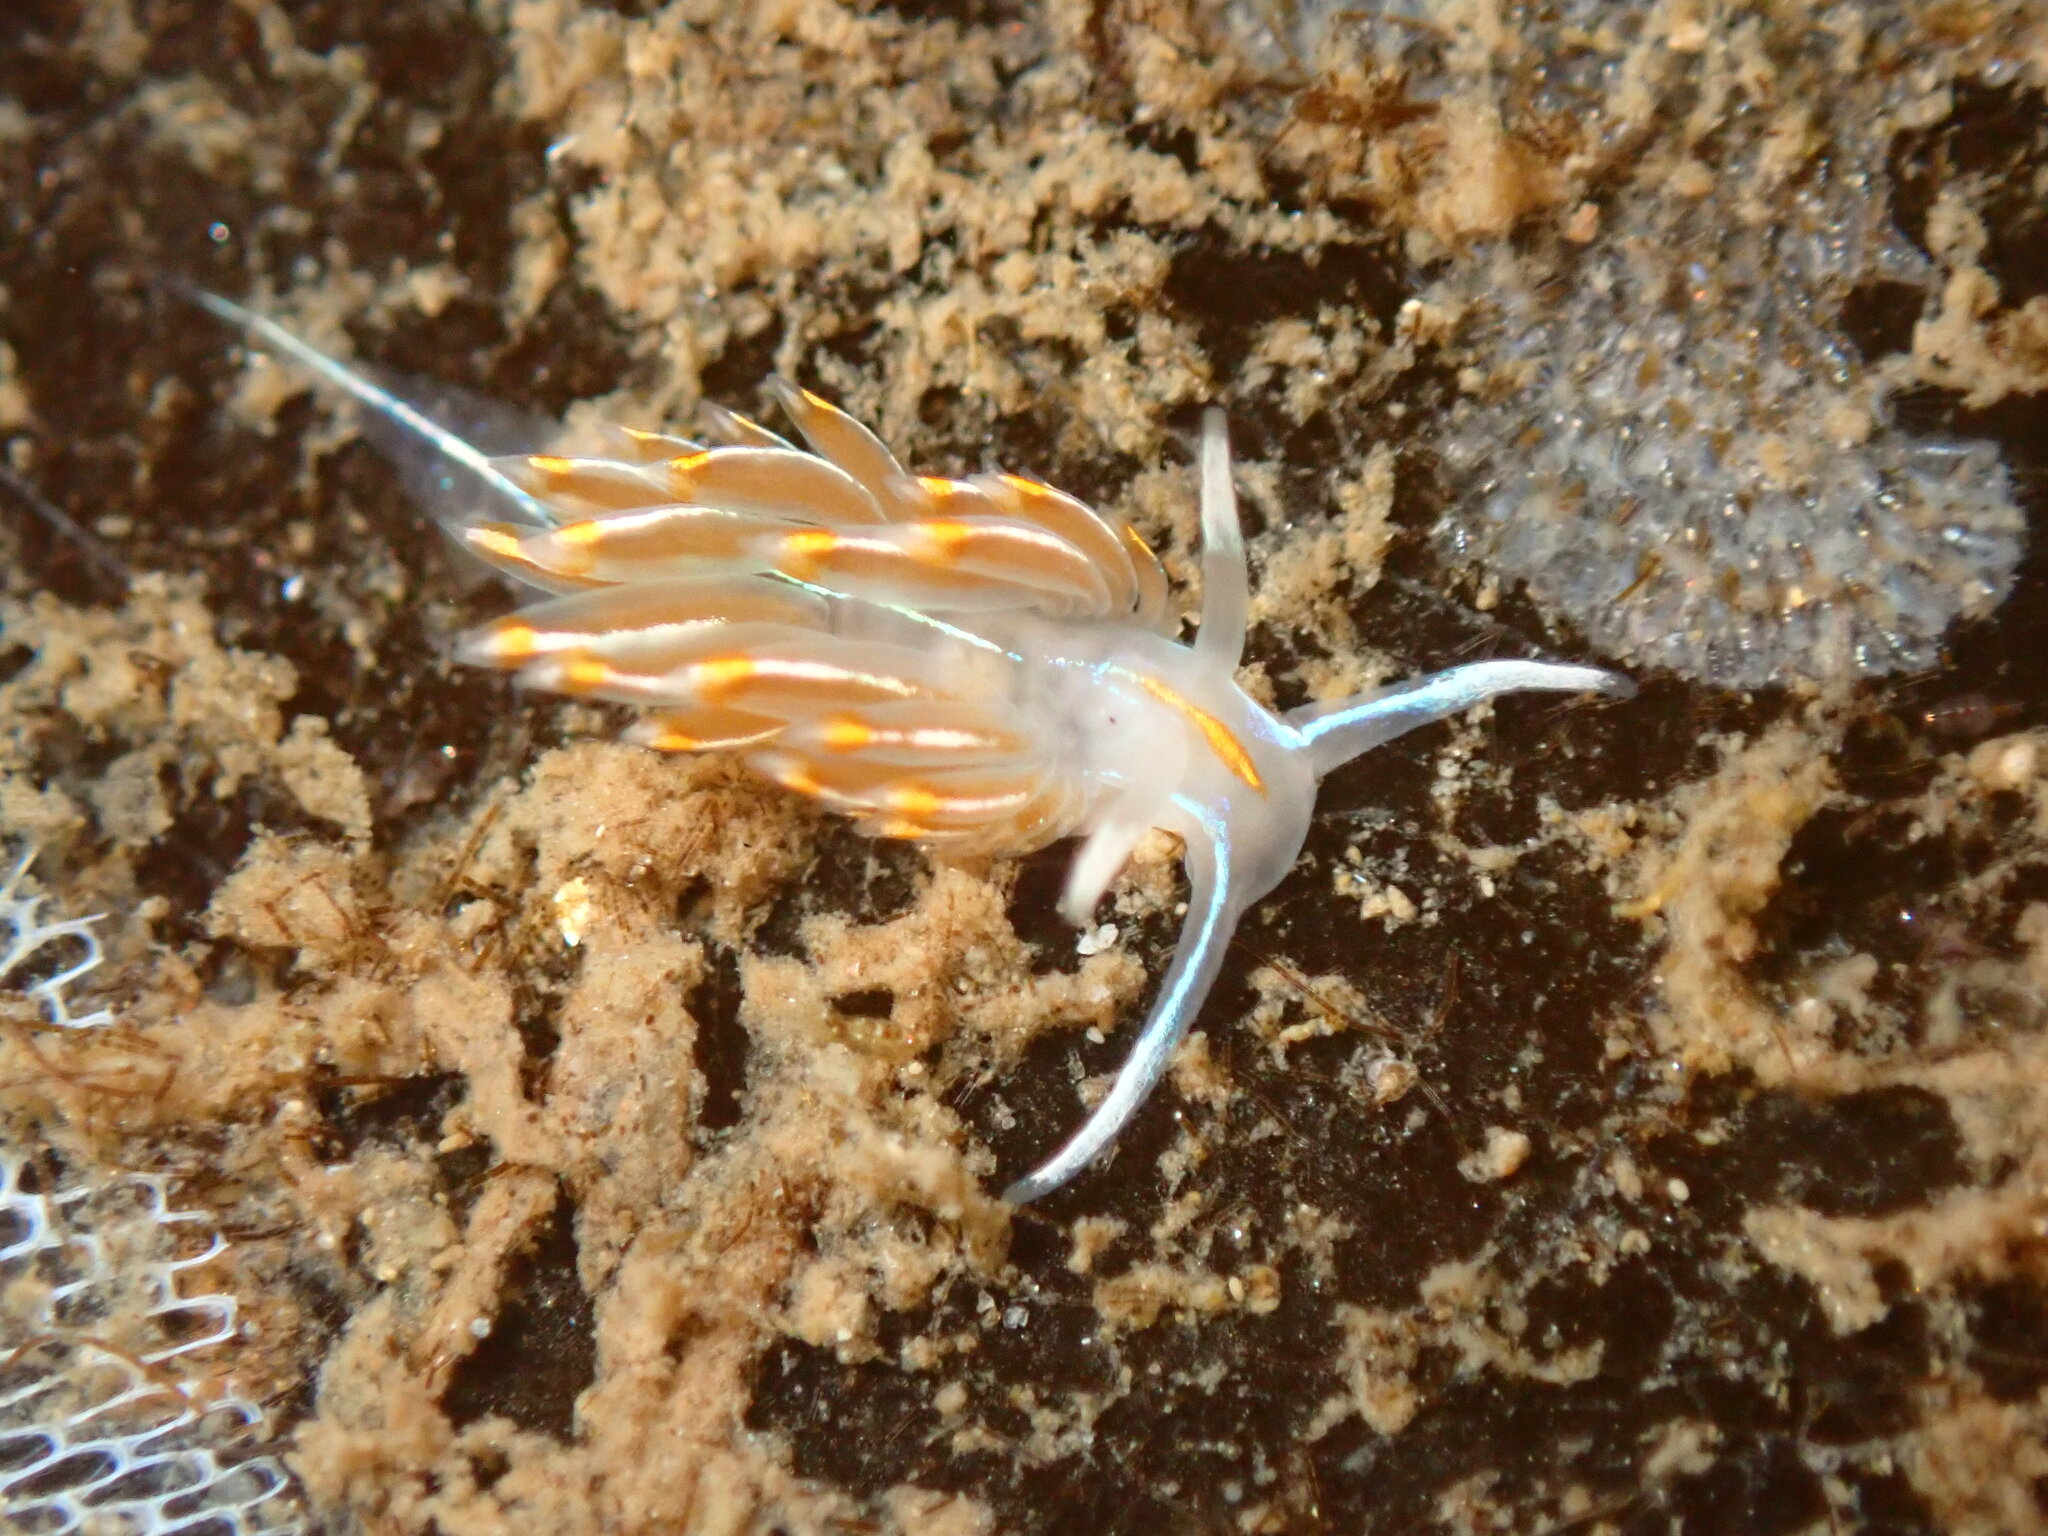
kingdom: Animalia
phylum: Mollusca
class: Gastropoda
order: Nudibranchia
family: Myrrhinidae
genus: Hermissenda
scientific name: Hermissenda crassicornis
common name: Hermissenda
